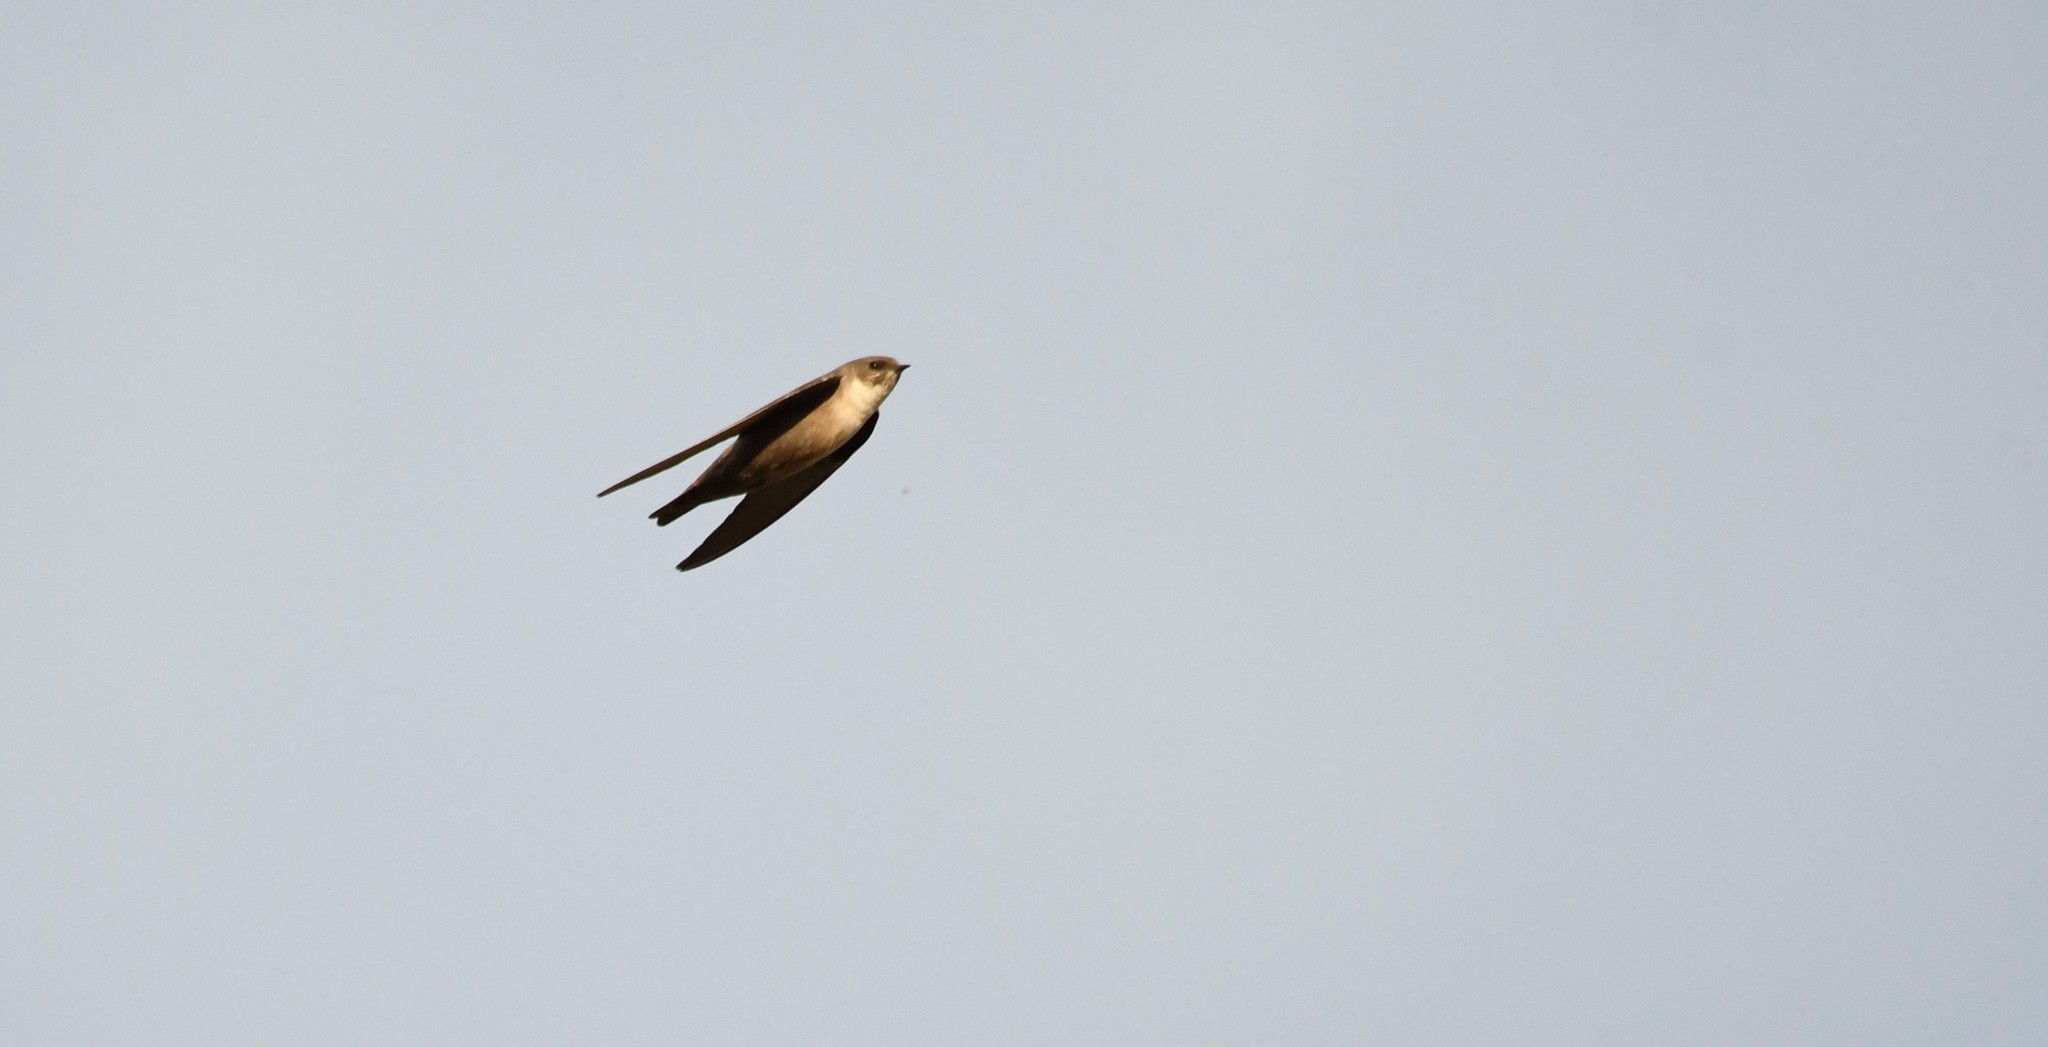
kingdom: Animalia
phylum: Chordata
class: Aves
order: Passeriformes
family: Hirundinidae
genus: Ptyonoprogne
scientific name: Ptyonoprogne rupestris
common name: Eurasian crag martin
